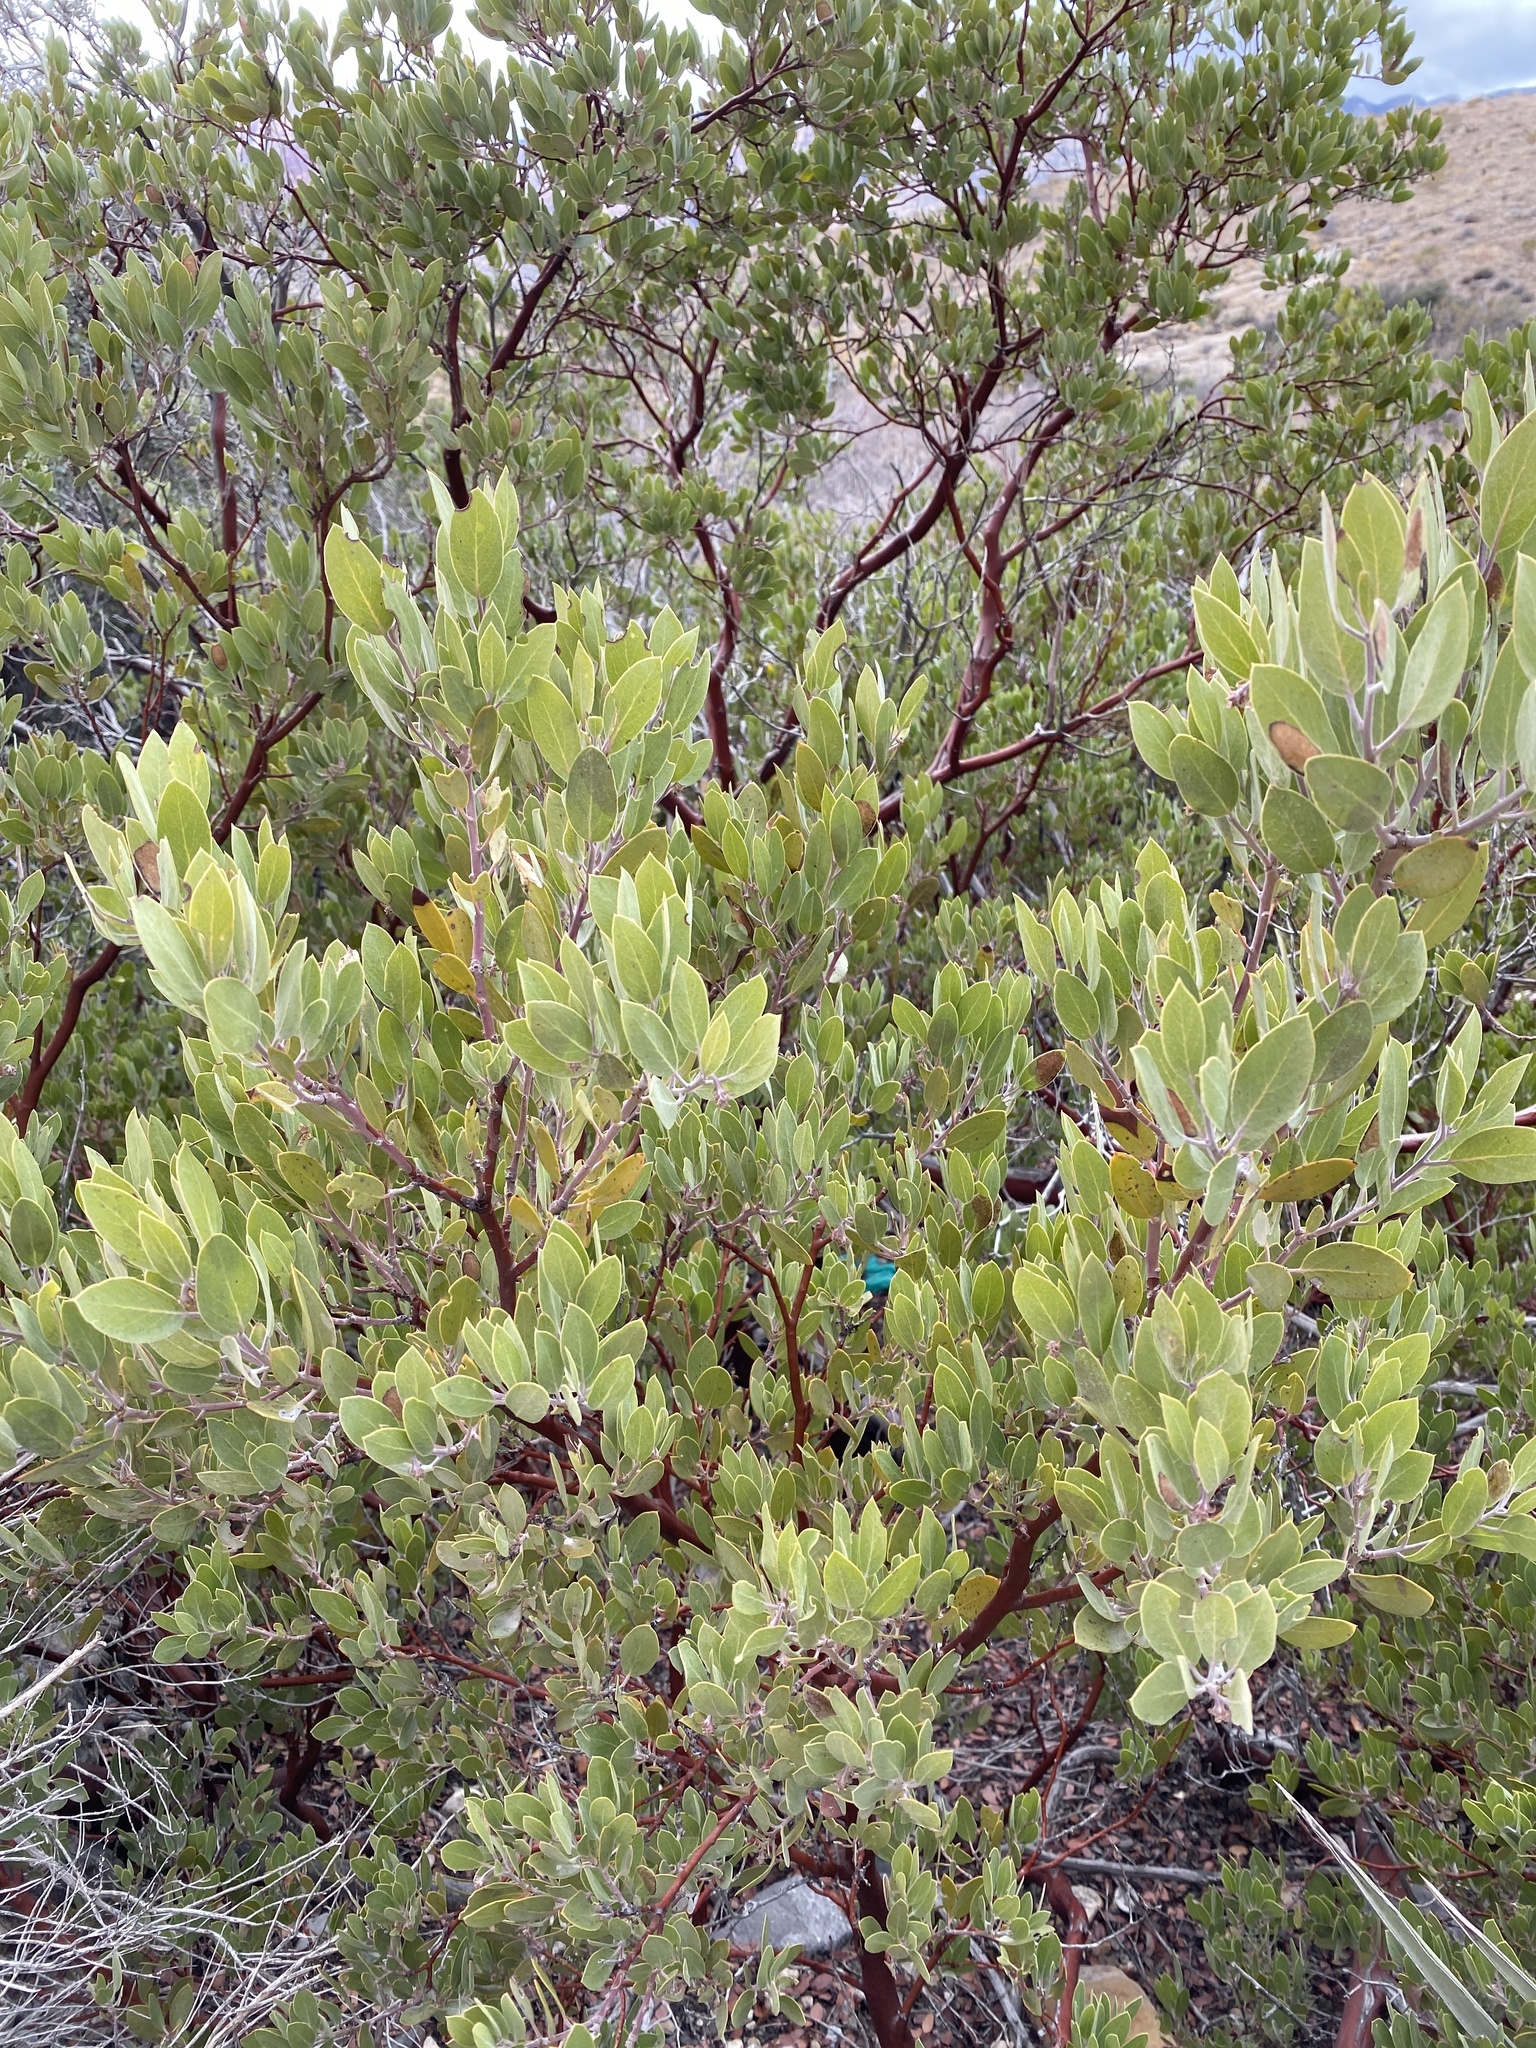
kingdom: Plantae
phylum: Tracheophyta
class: Magnoliopsida
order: Ericales
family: Ericaceae
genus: Arctostaphylos
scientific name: Arctostaphylos pungens
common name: Mexican manzanita
